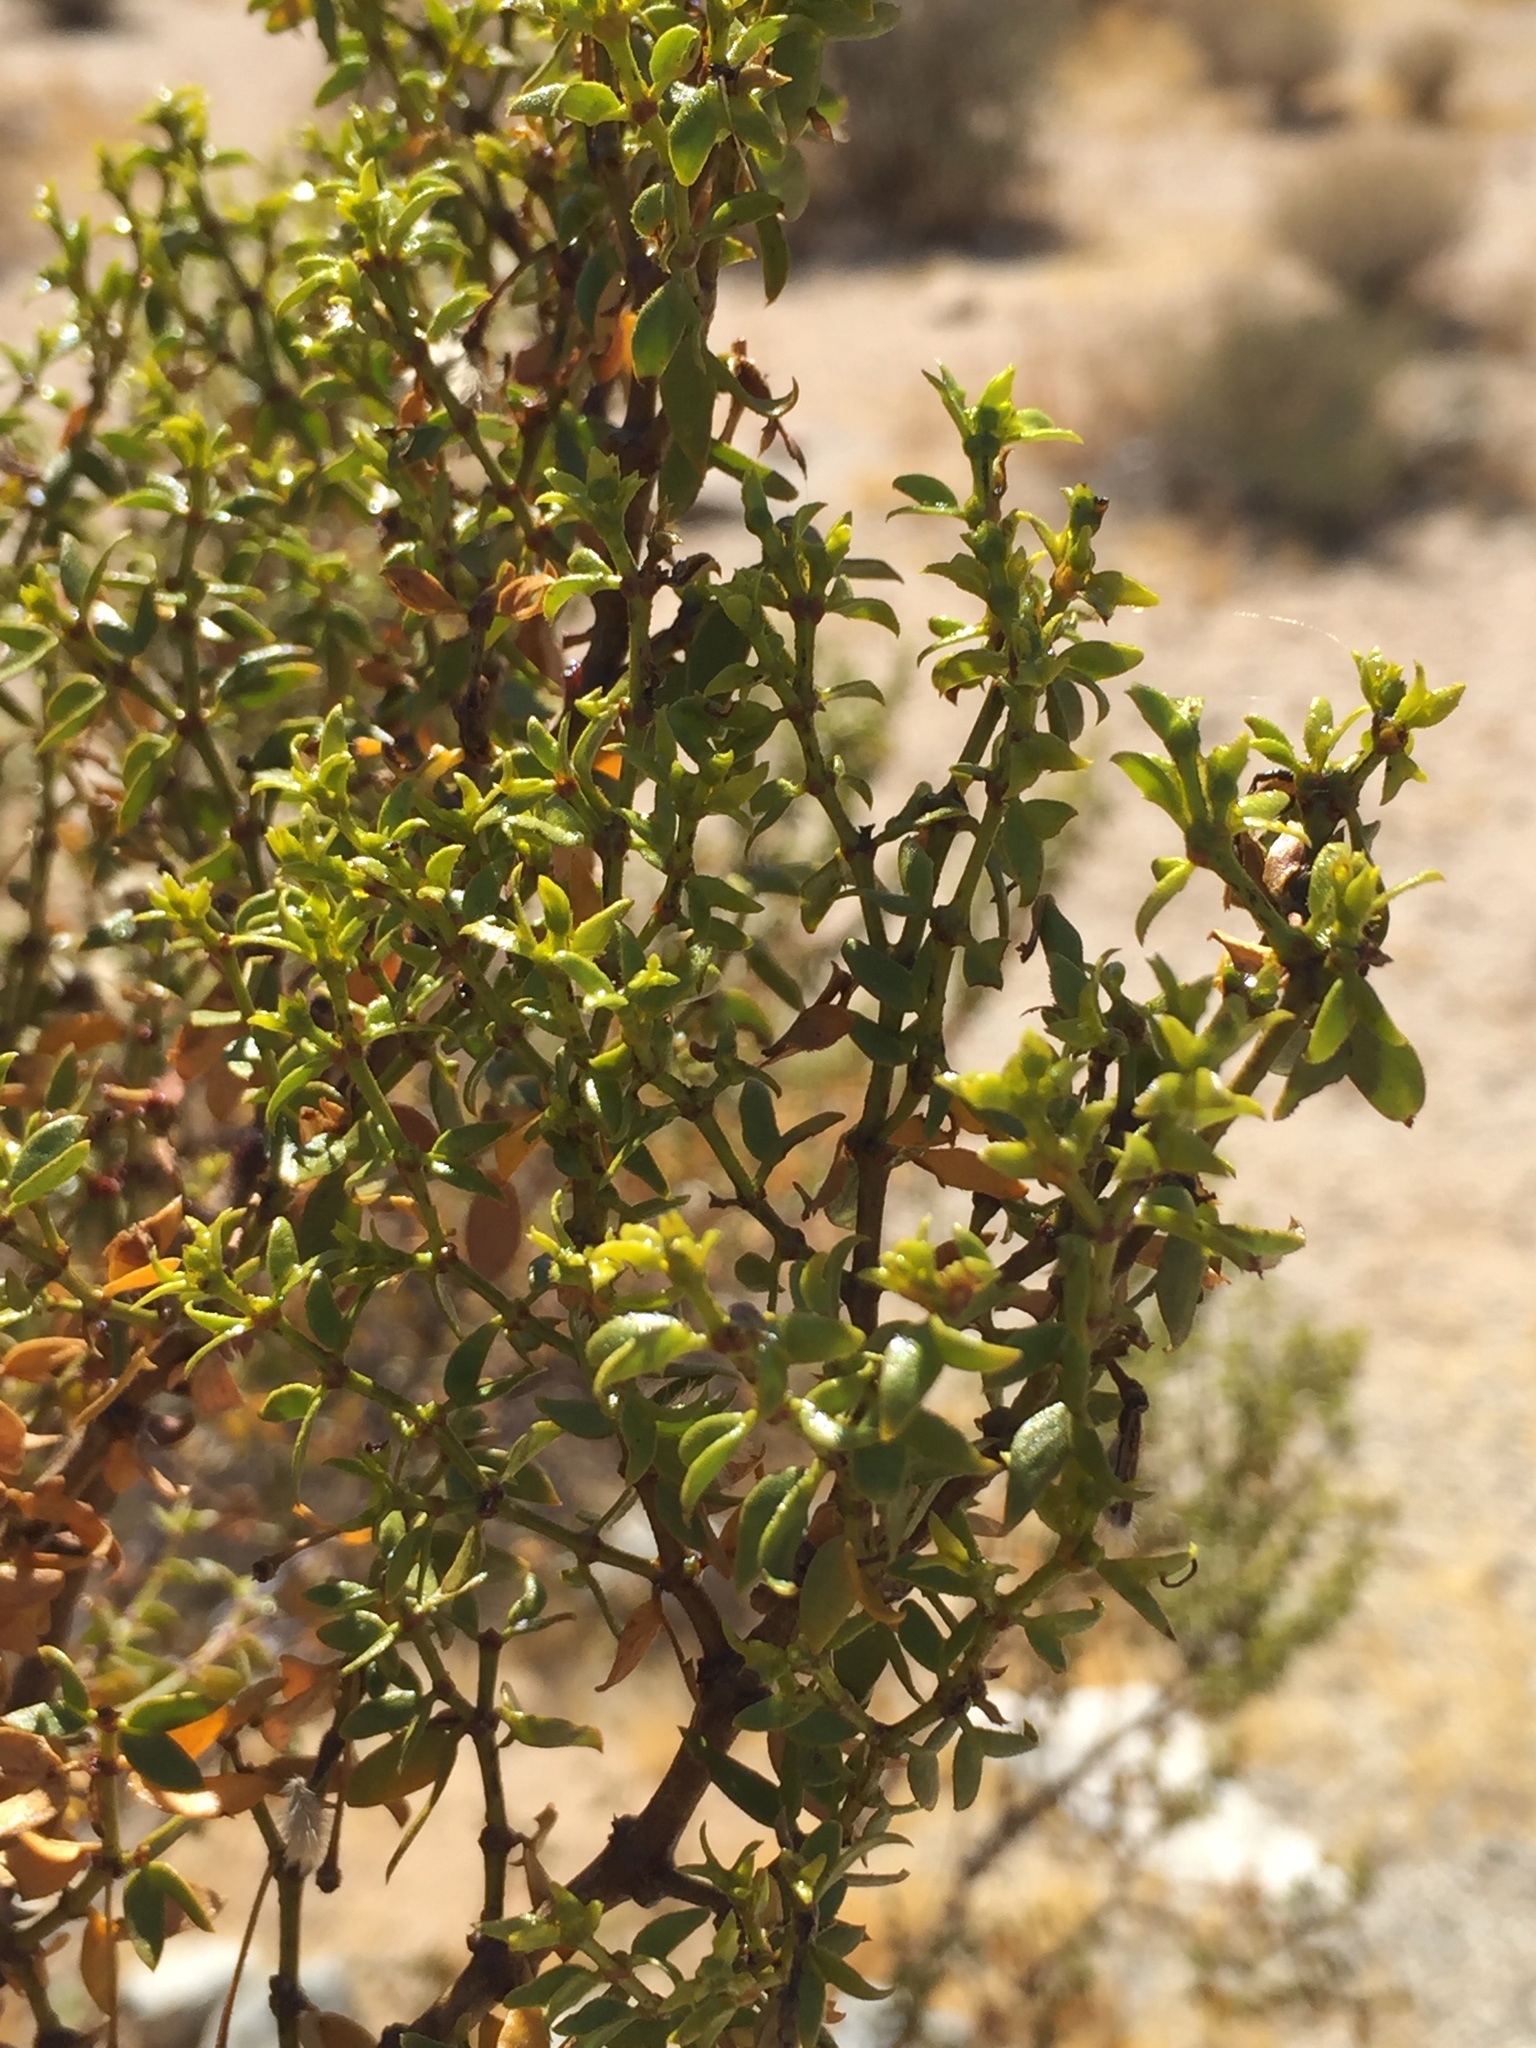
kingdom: Plantae
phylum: Tracheophyta
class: Magnoliopsida
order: Zygophyllales
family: Zygophyllaceae
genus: Larrea
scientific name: Larrea tridentata
